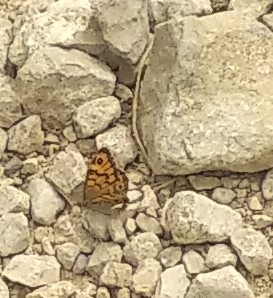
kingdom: Animalia
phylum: Arthropoda
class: Insecta
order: Lepidoptera
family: Nymphalidae
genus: Pararge
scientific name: Pararge Lasiommata megera
